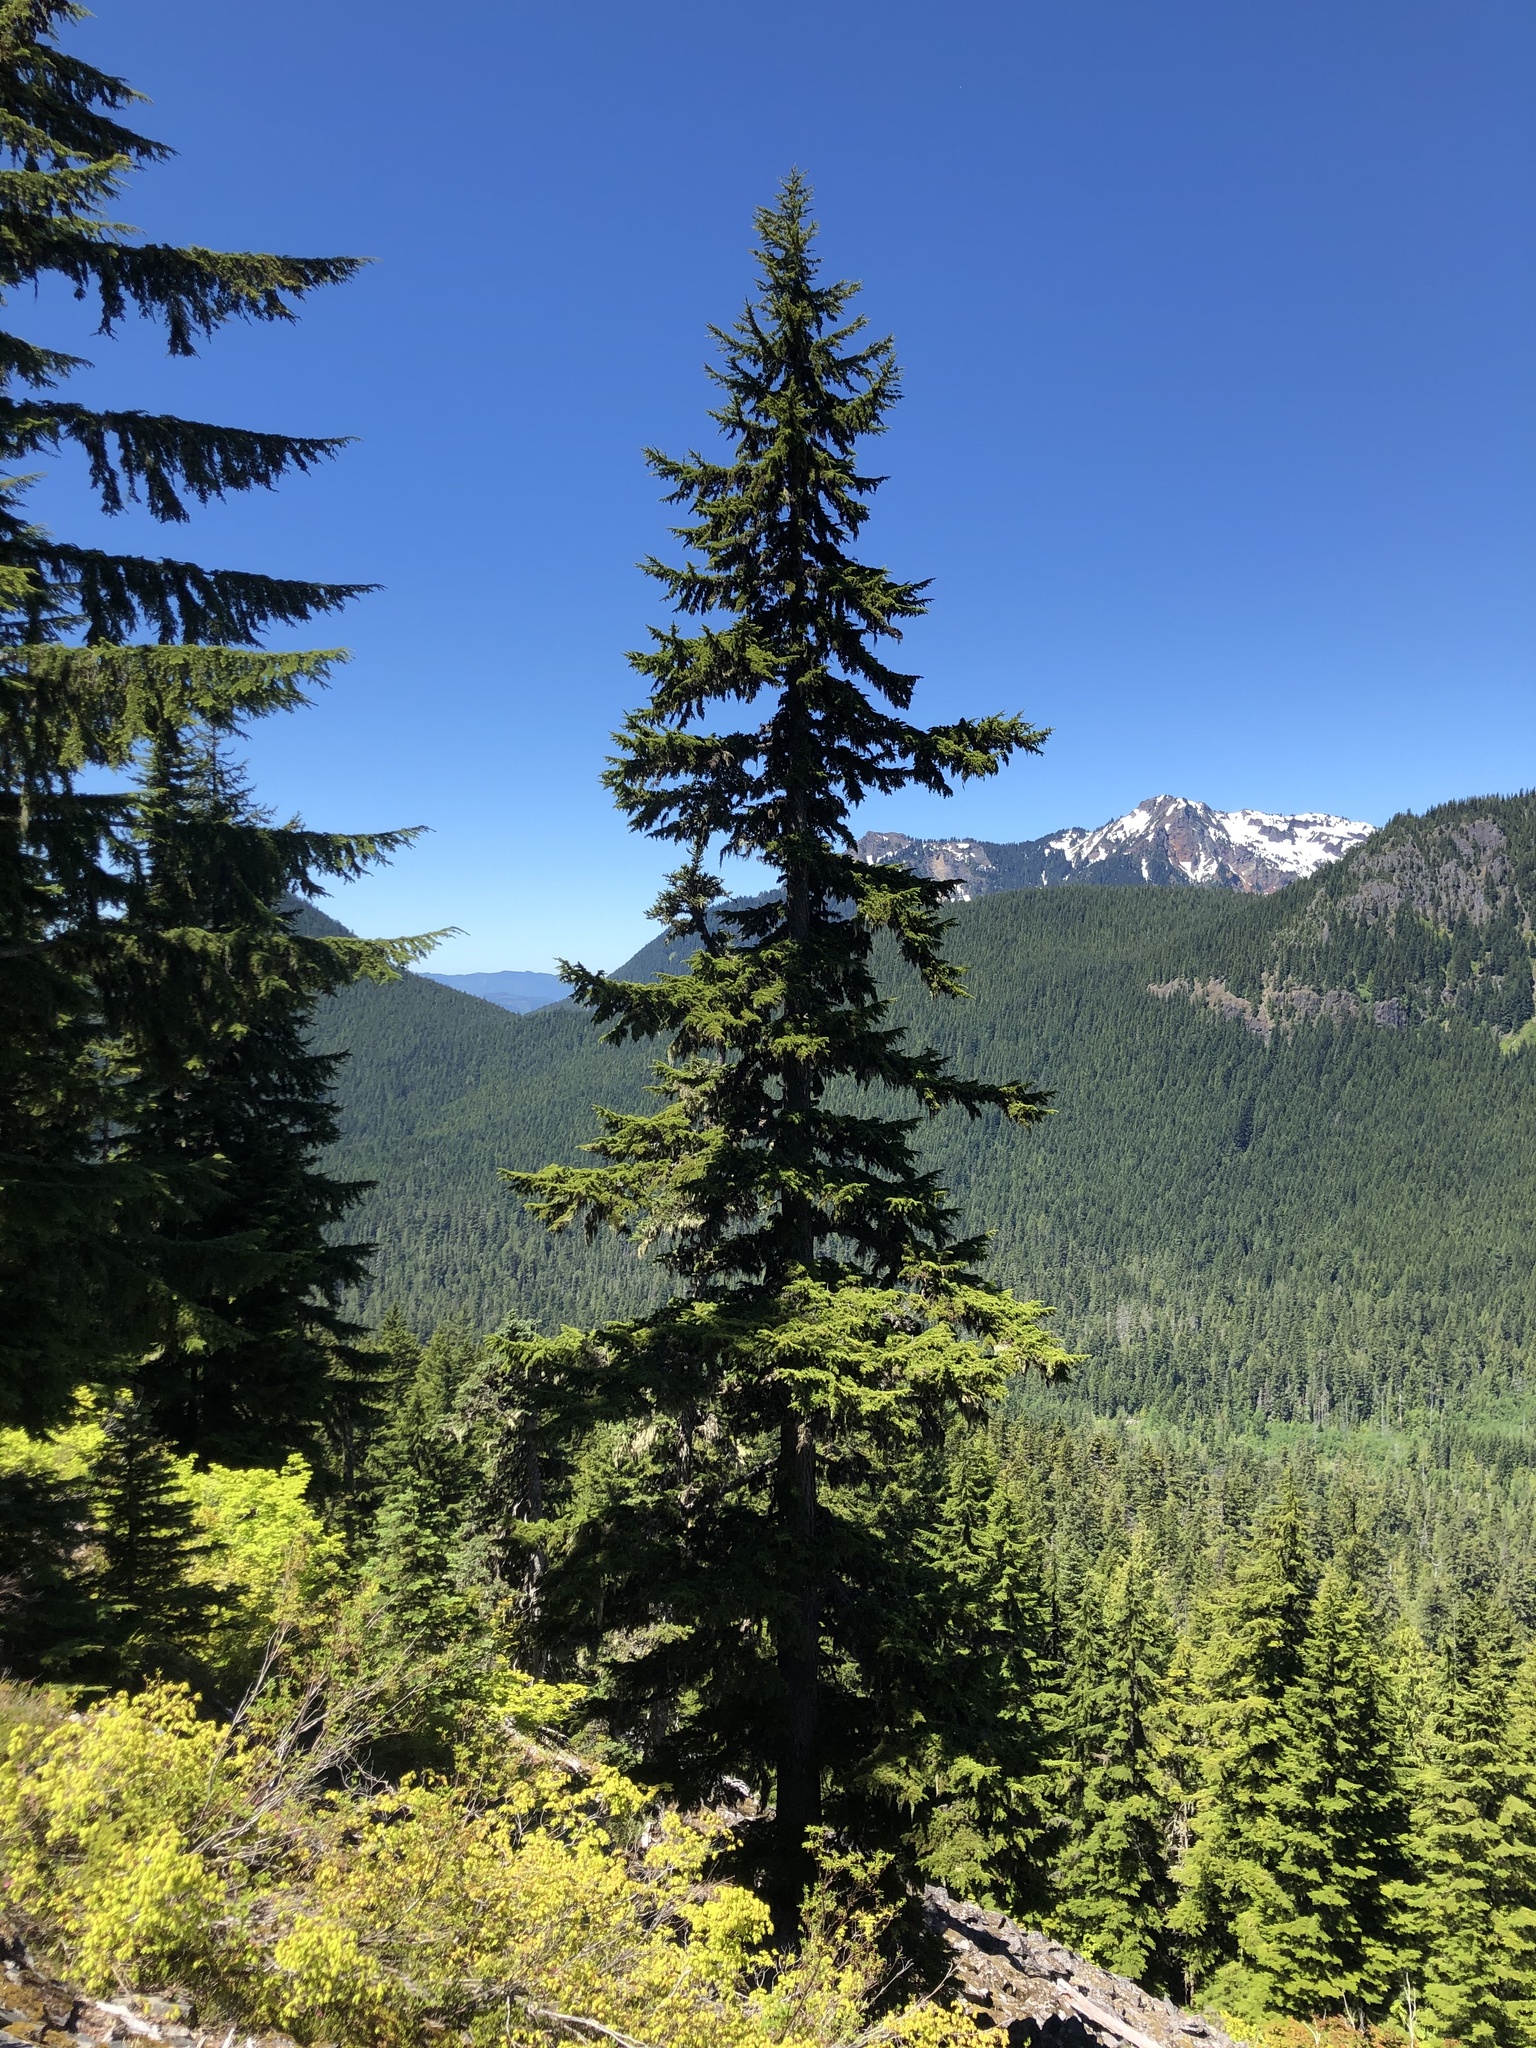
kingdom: Plantae
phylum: Tracheophyta
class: Pinopsida
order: Pinales
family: Pinaceae
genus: Tsuga
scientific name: Tsuga mertensiana
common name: Mountain hemlock
